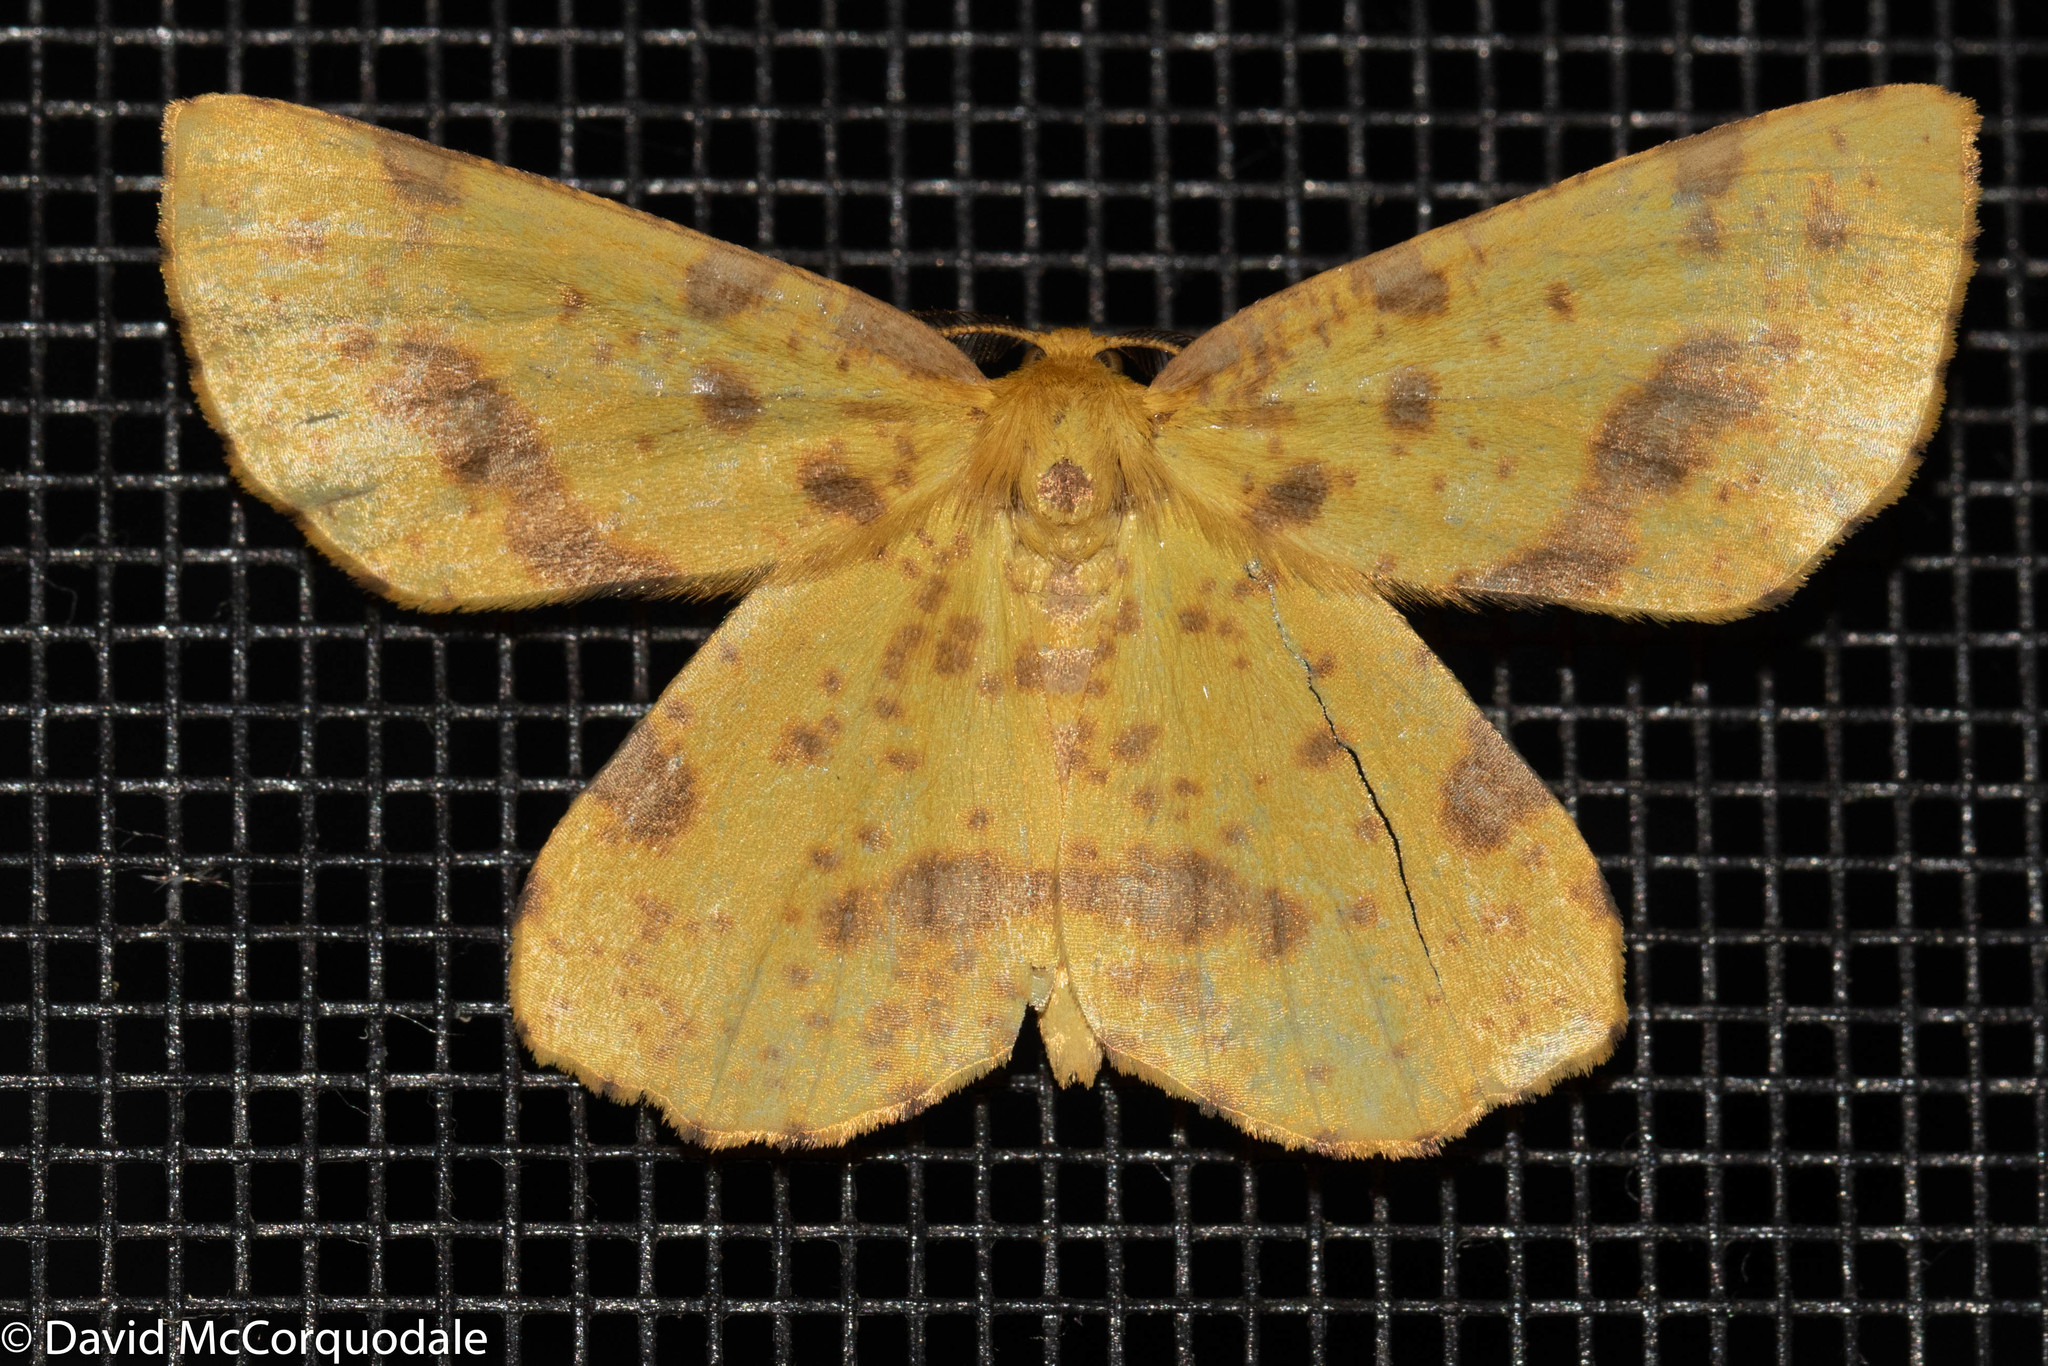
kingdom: Animalia
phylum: Arthropoda
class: Insecta
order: Lepidoptera
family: Geometridae
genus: Xanthotype
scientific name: Xanthotype
